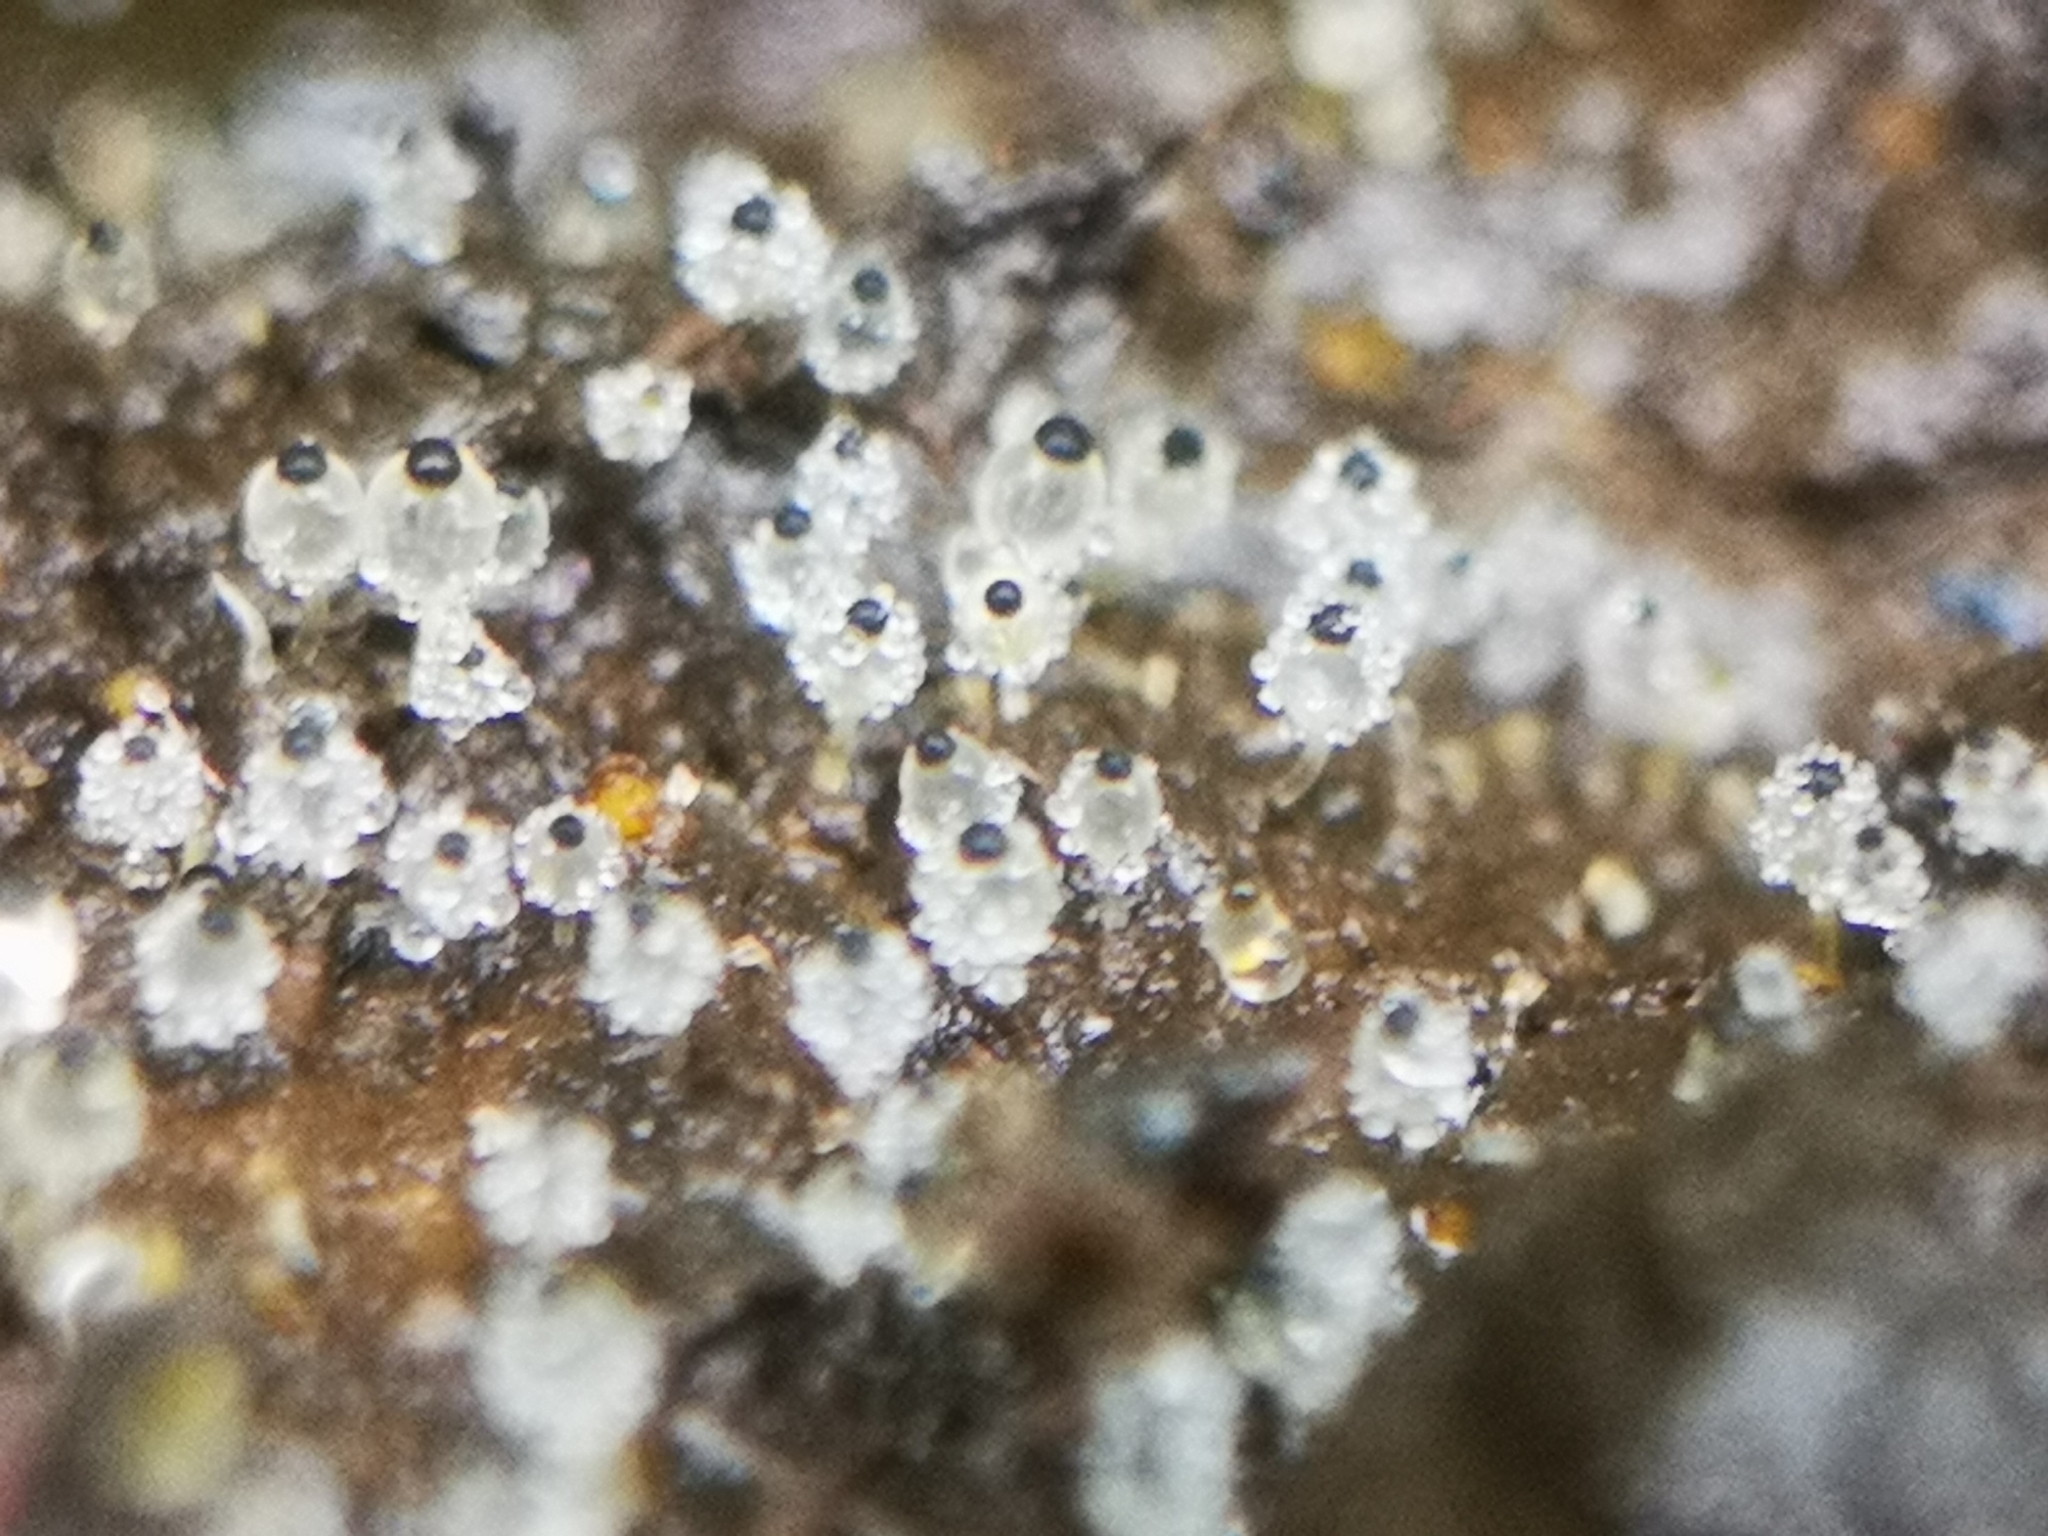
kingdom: Fungi
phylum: Mucoromycota
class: Mucoromycetes
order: Mucorales
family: Pilobolaceae
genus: Pilobolus
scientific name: Pilobolus
